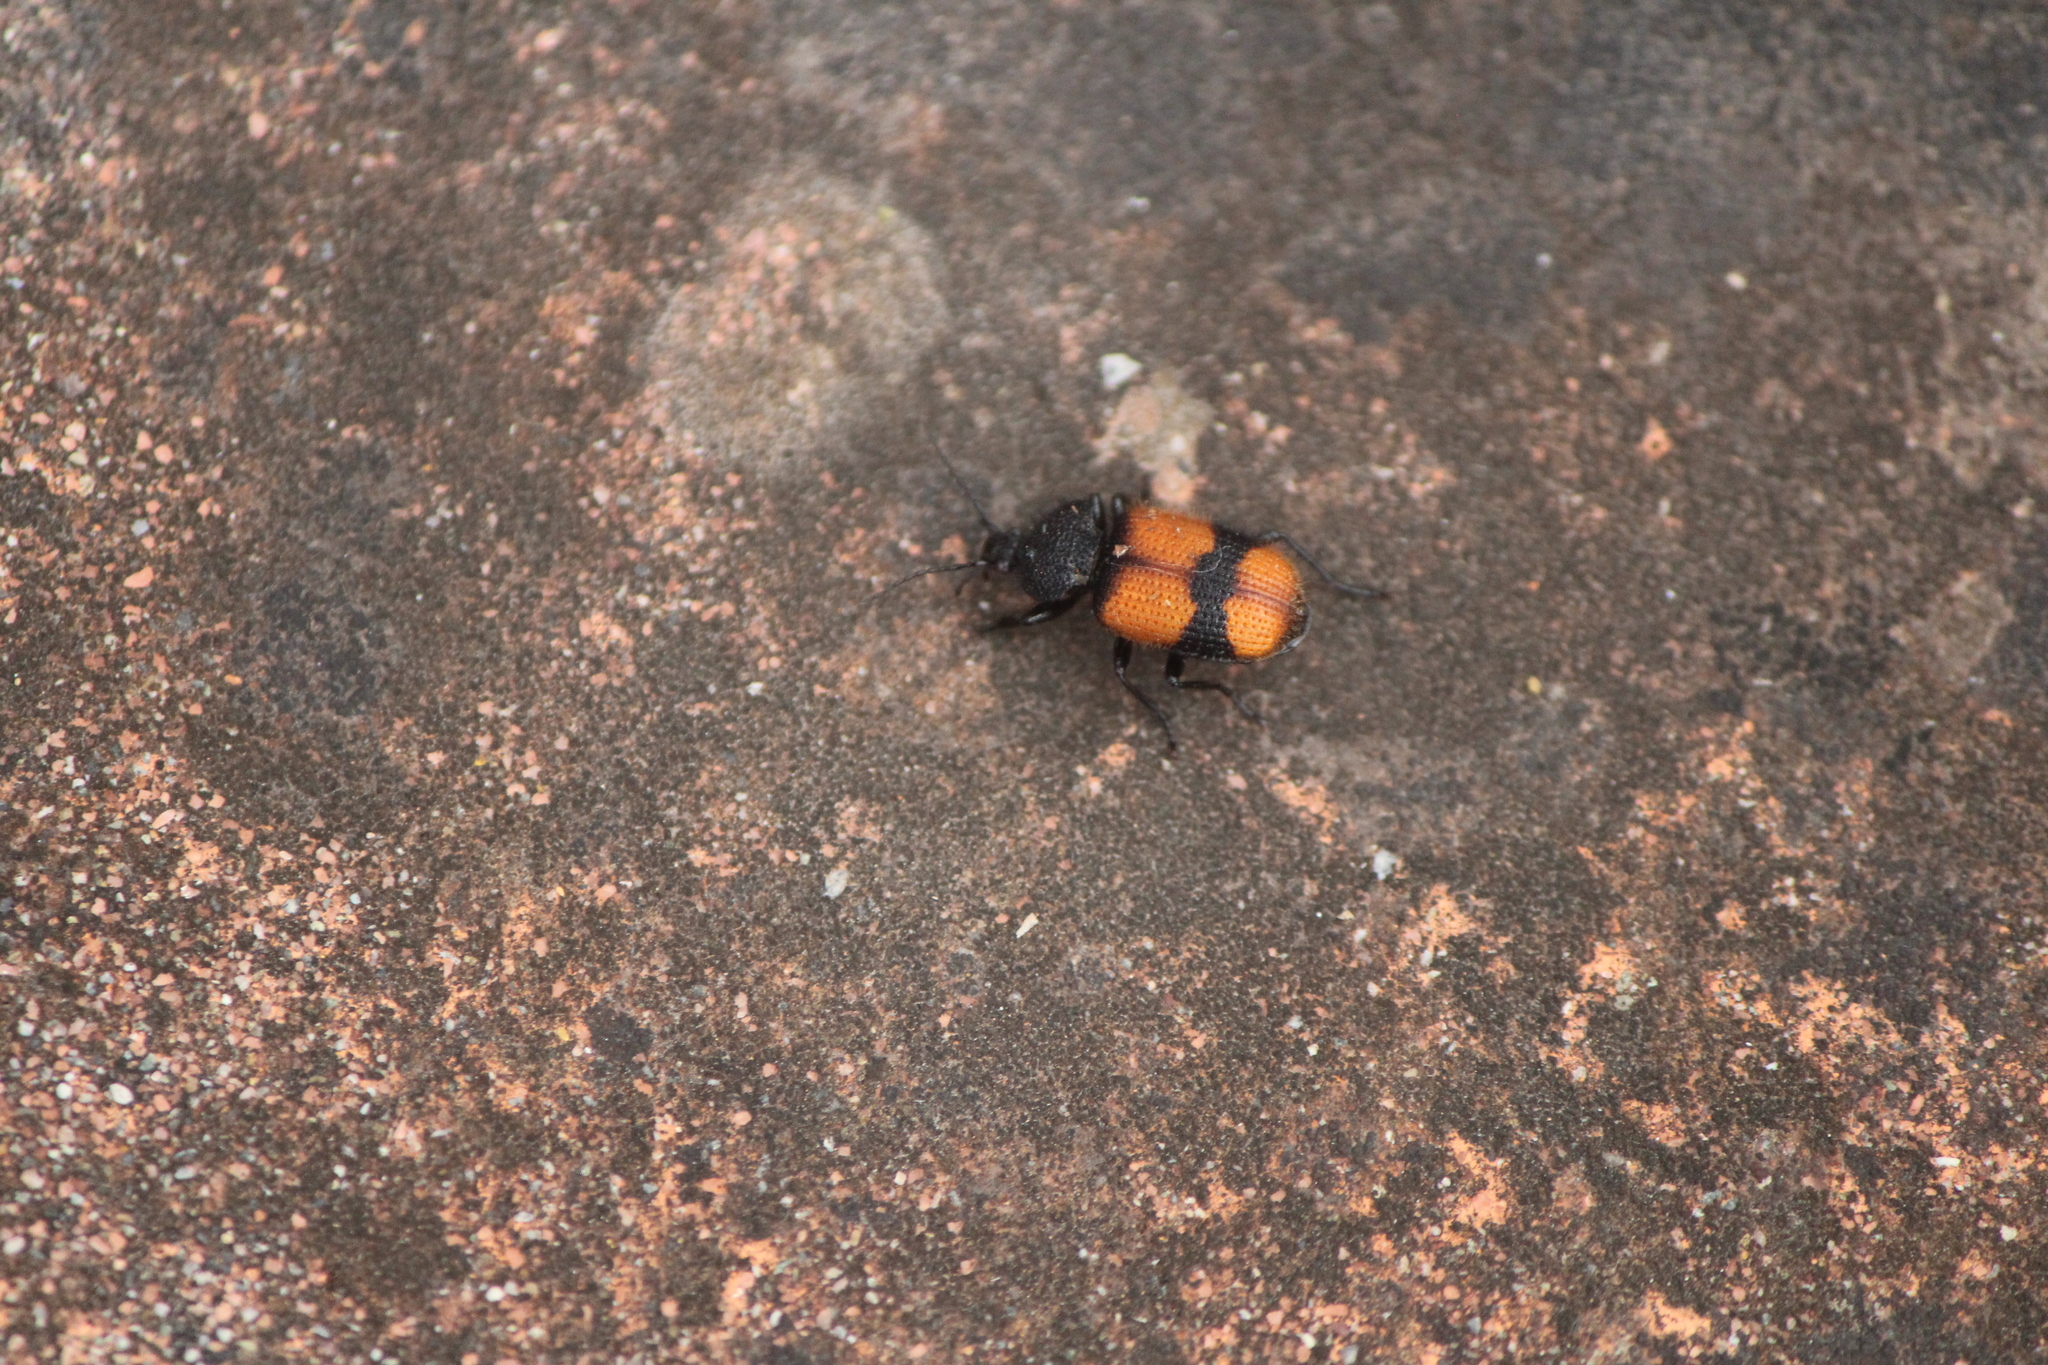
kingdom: Animalia
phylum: Arthropoda
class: Insecta
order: Coleoptera
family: Carabidae
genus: Panagaeus
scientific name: Panagaeus sallei
